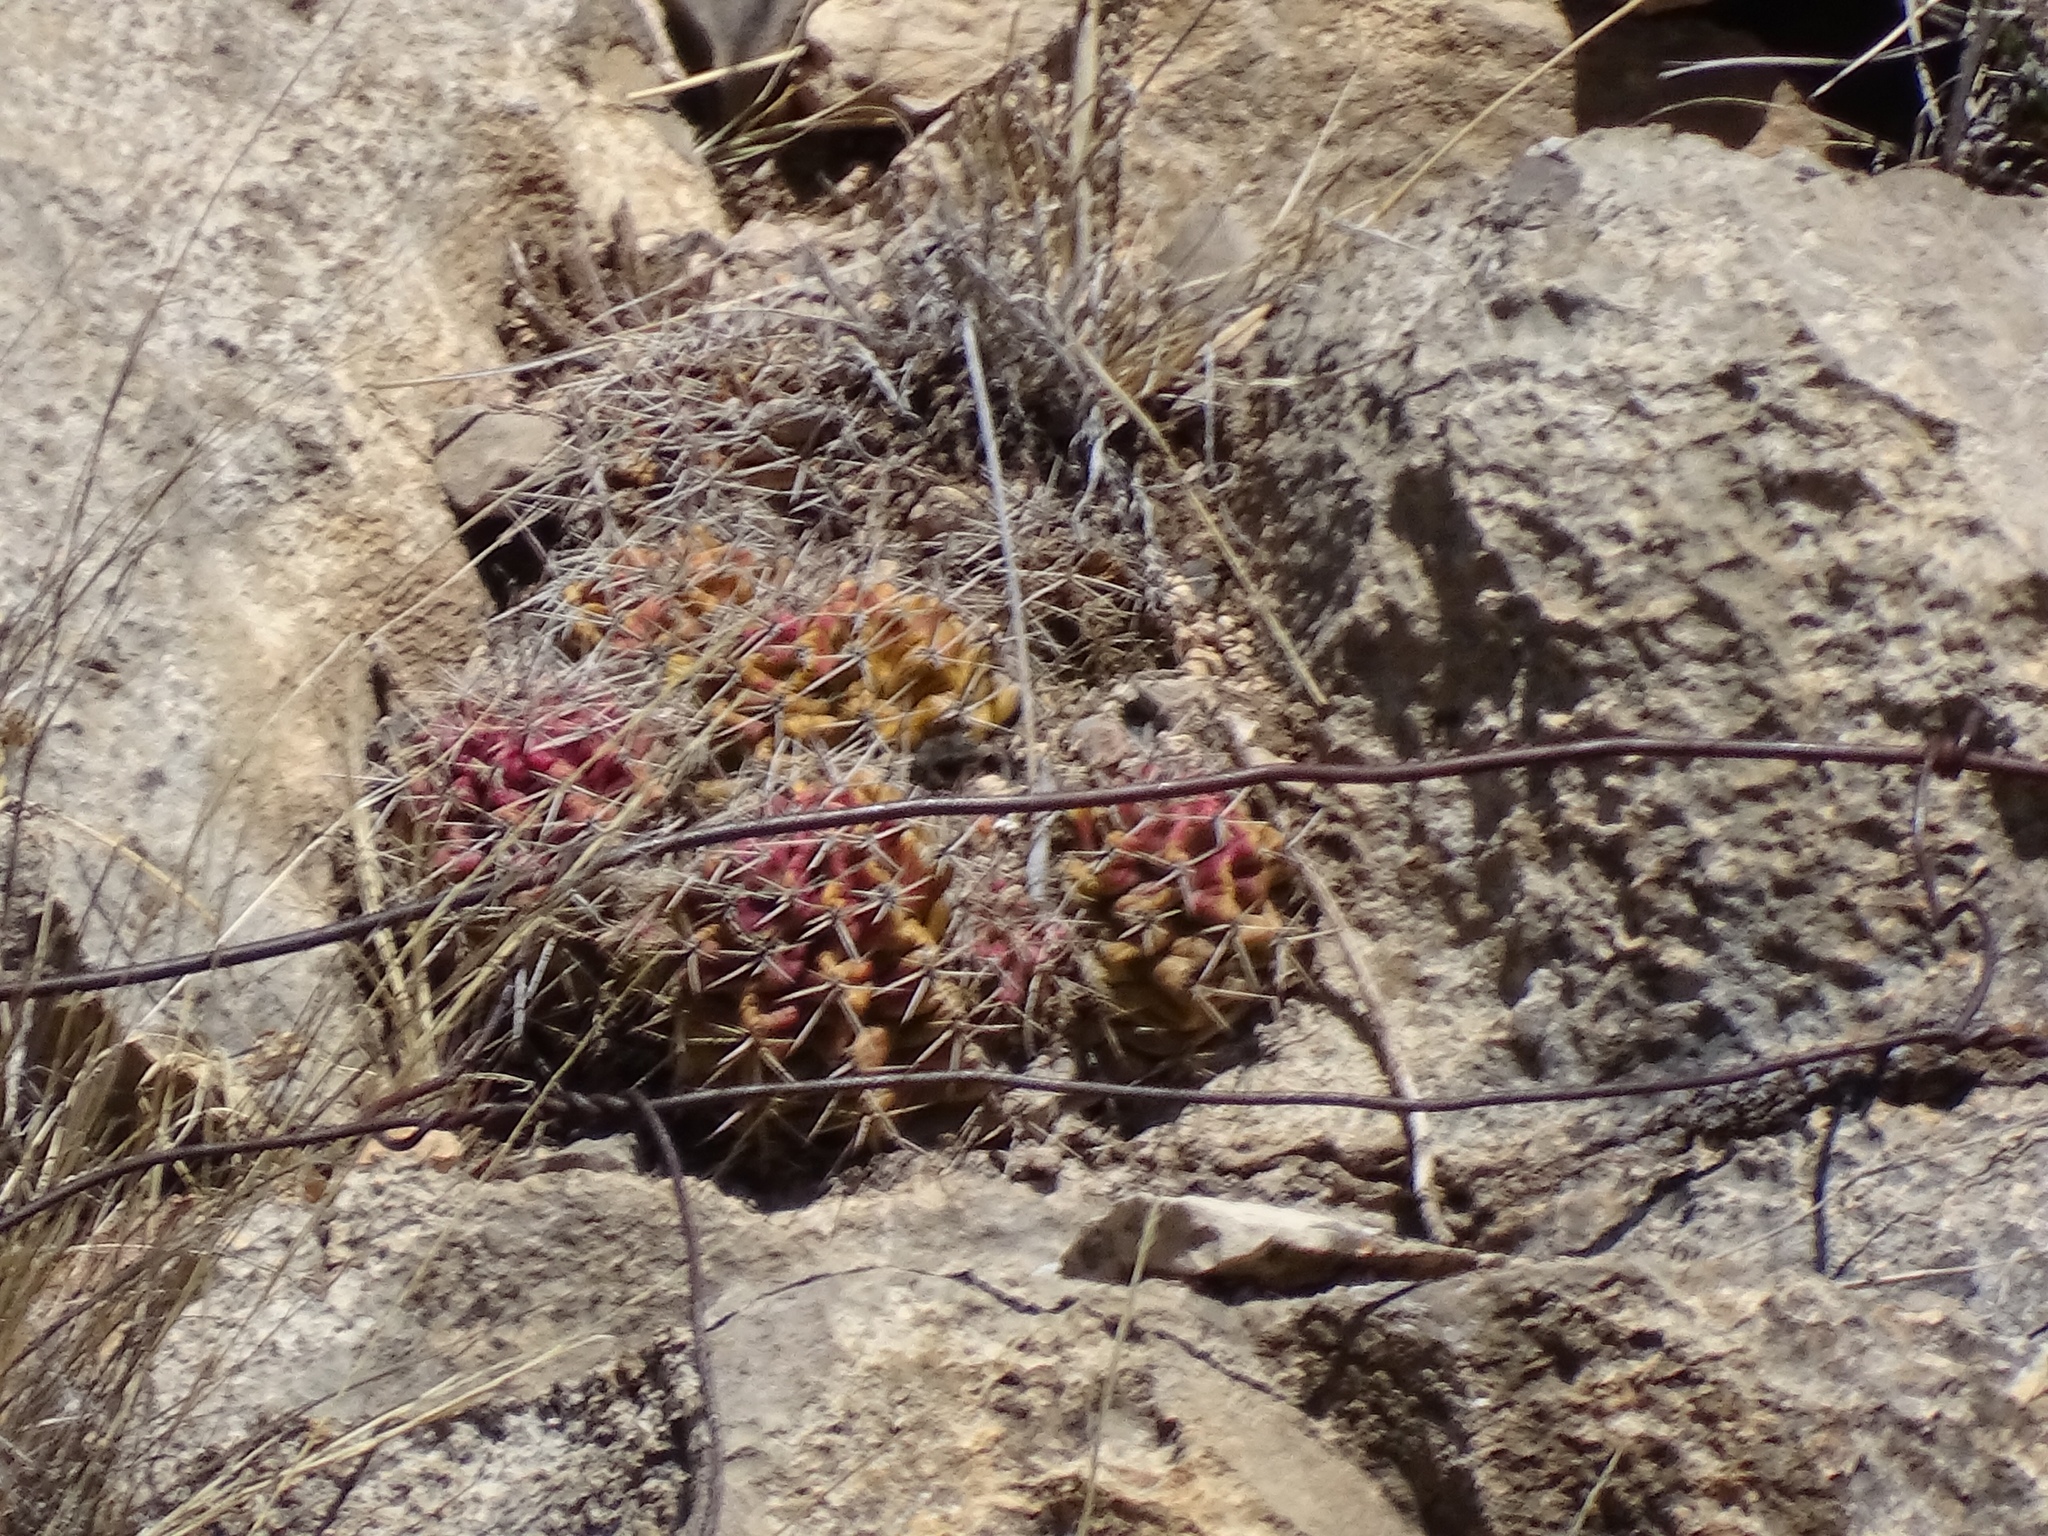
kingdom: Plantae
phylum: Tracheophyta
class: Magnoliopsida
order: Caryophyllales
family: Cactaceae
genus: Echinocereus
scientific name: Echinocereus coccineus
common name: Scarlet hedgehog cactus
